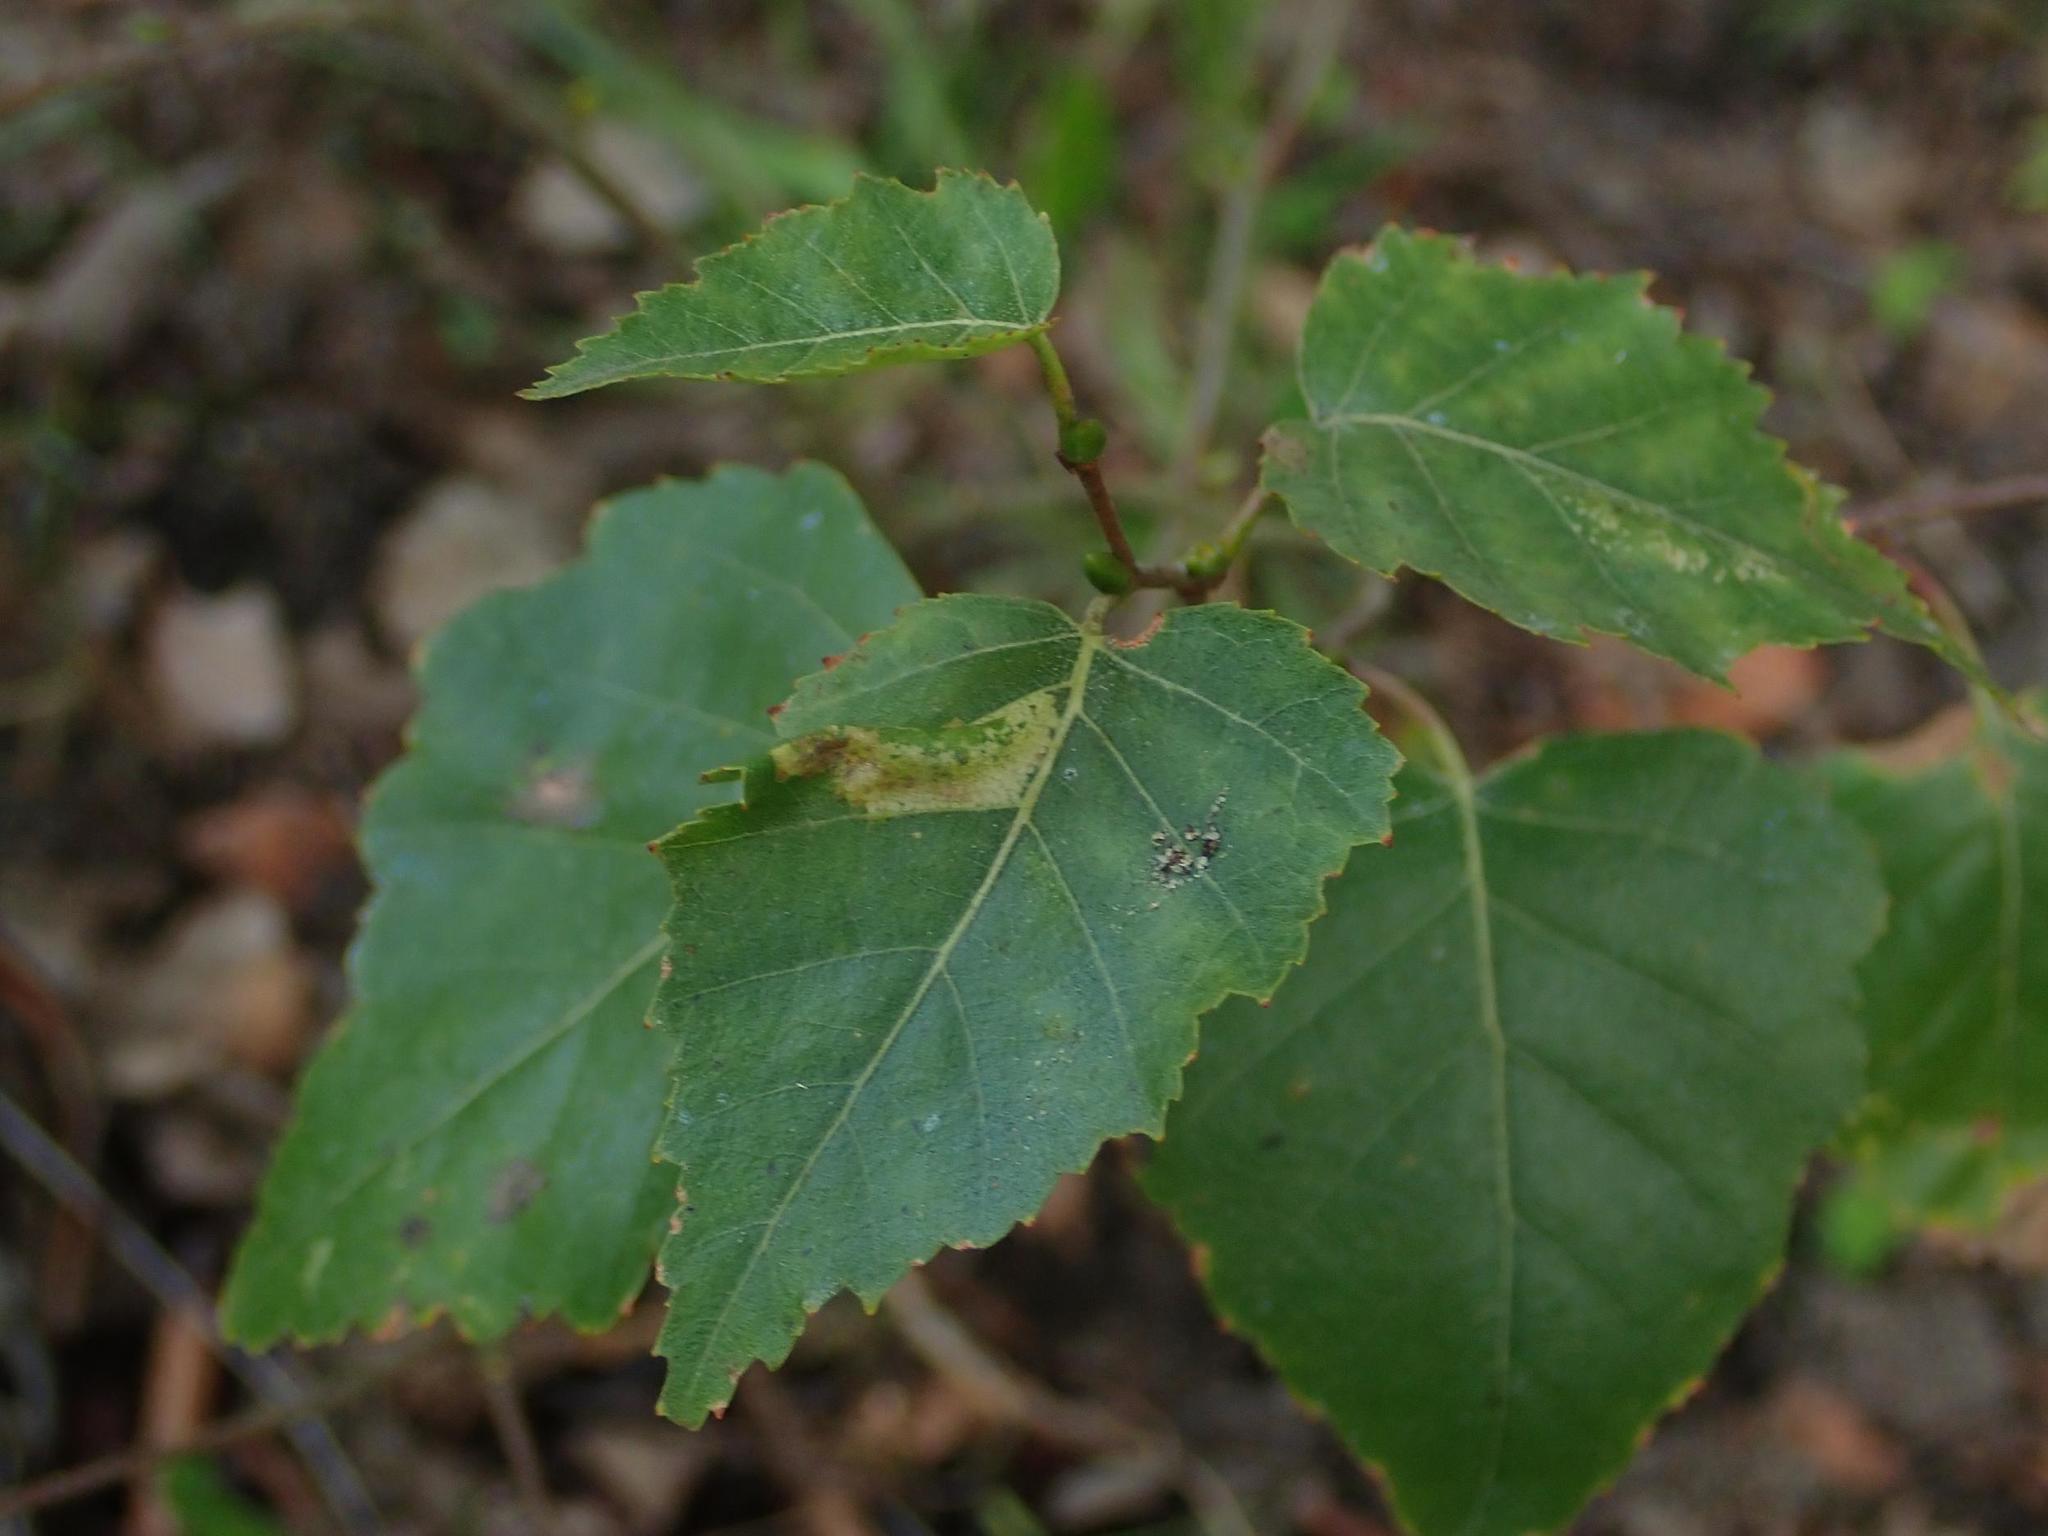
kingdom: Plantae
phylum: Tracheophyta
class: Magnoliopsida
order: Fagales
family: Betulaceae
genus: Betula
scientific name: Betula pendula
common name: Silver birch
